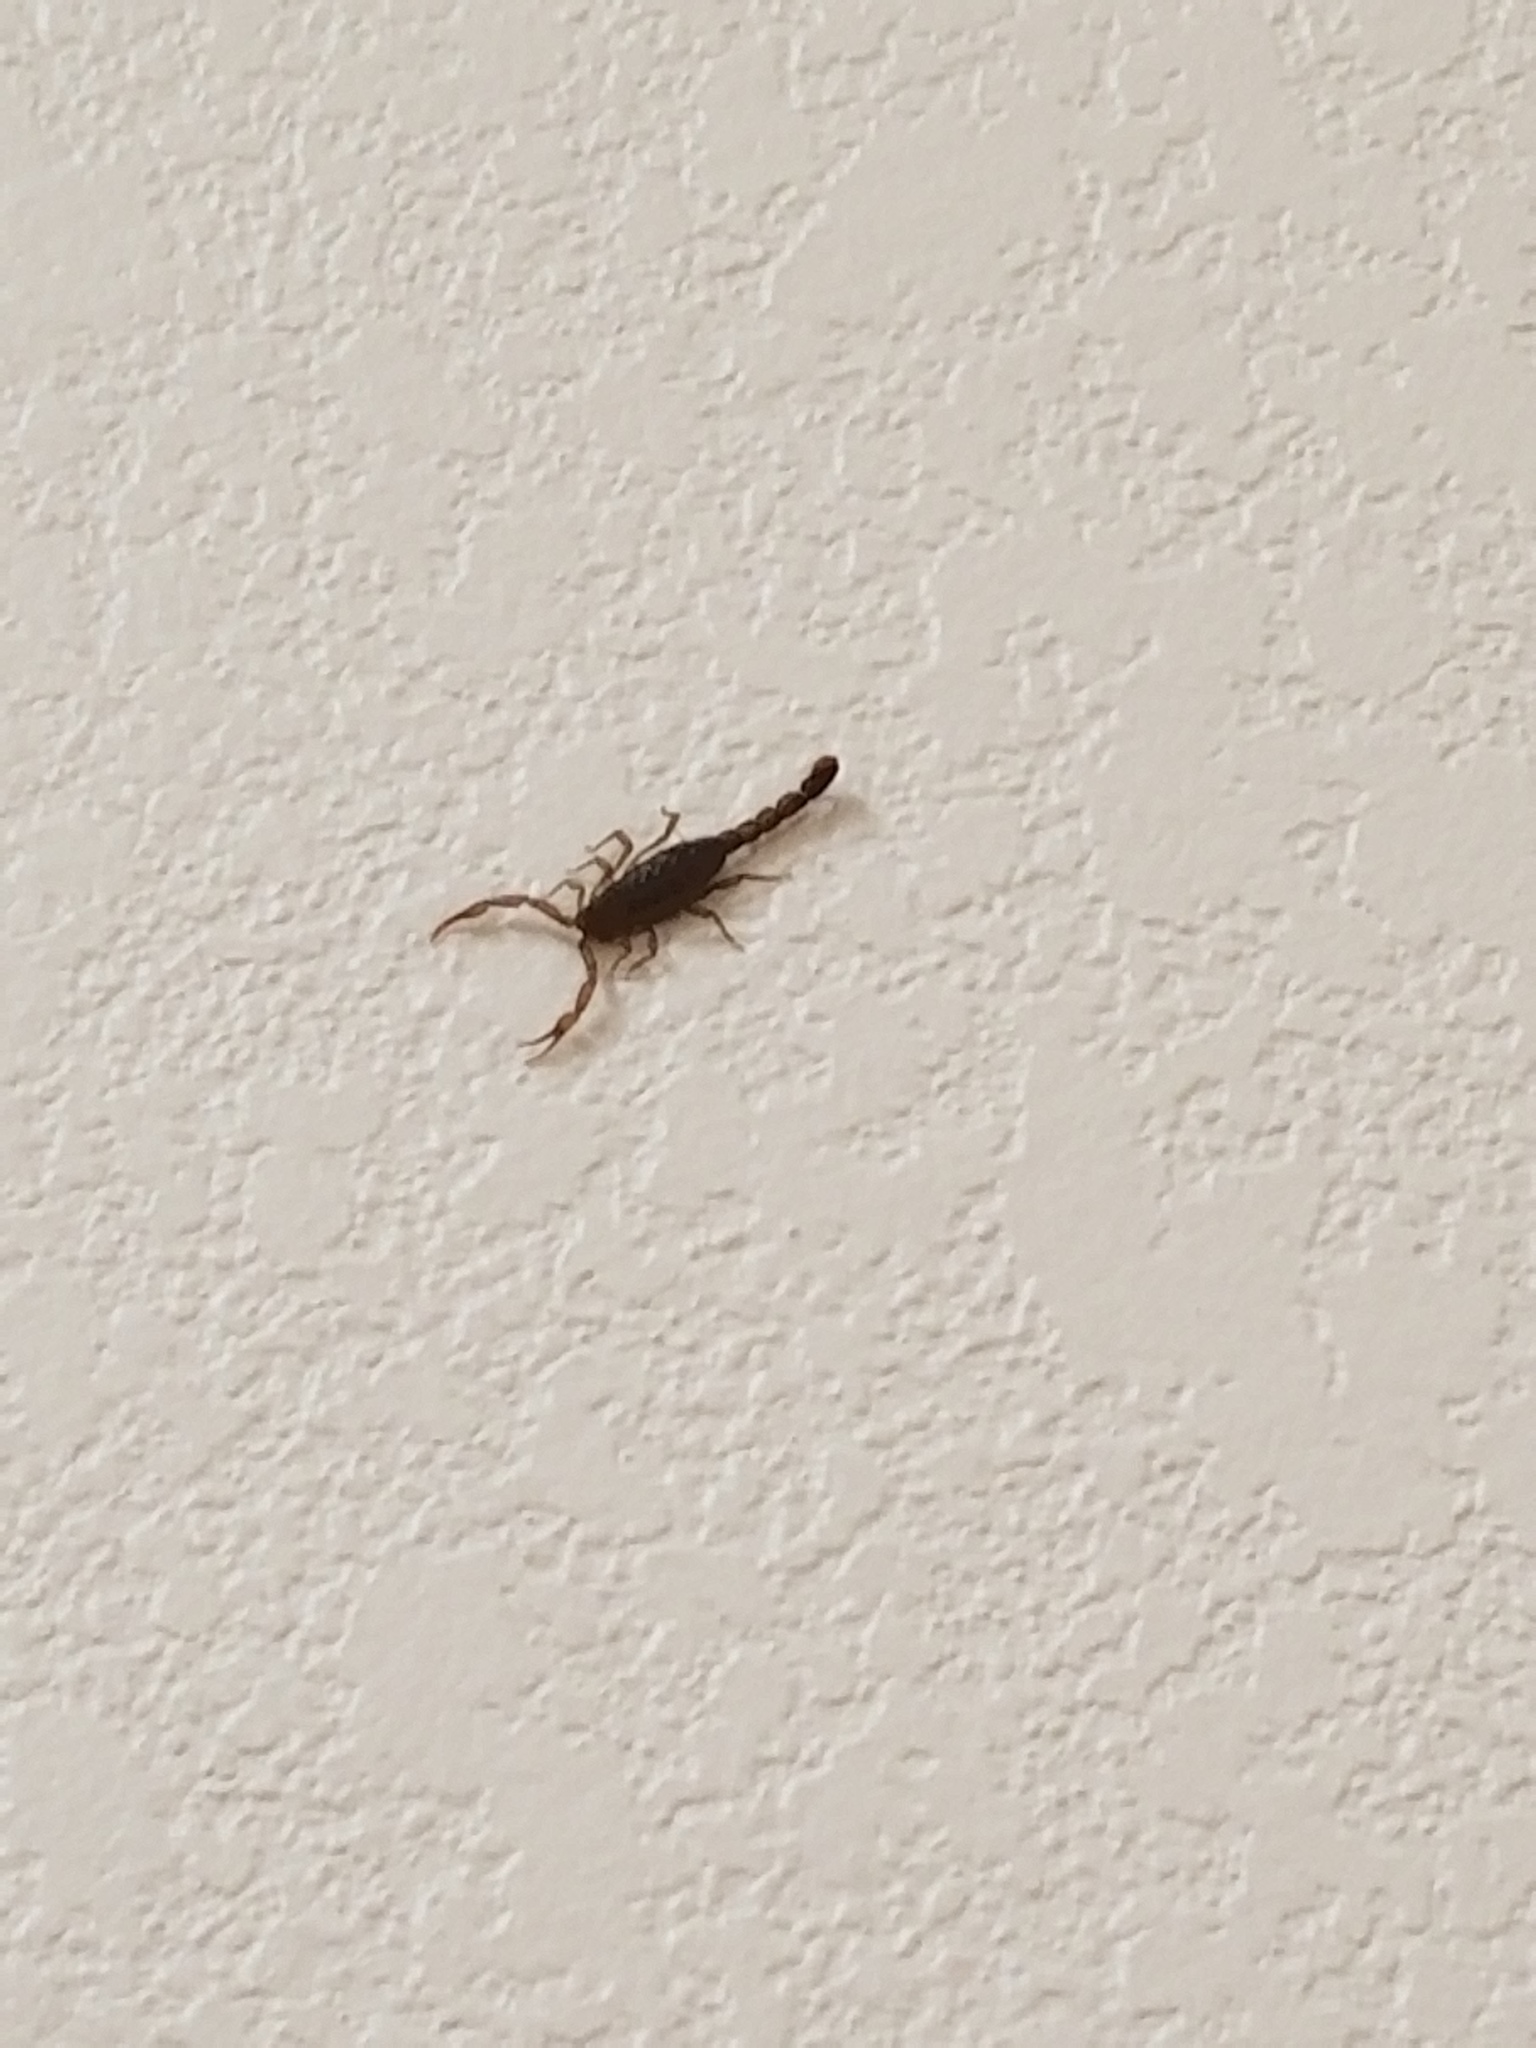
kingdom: Animalia
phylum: Arthropoda
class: Arachnida
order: Scorpiones
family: Vaejovidae
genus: Serradigitus
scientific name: Serradigitus gertschi
